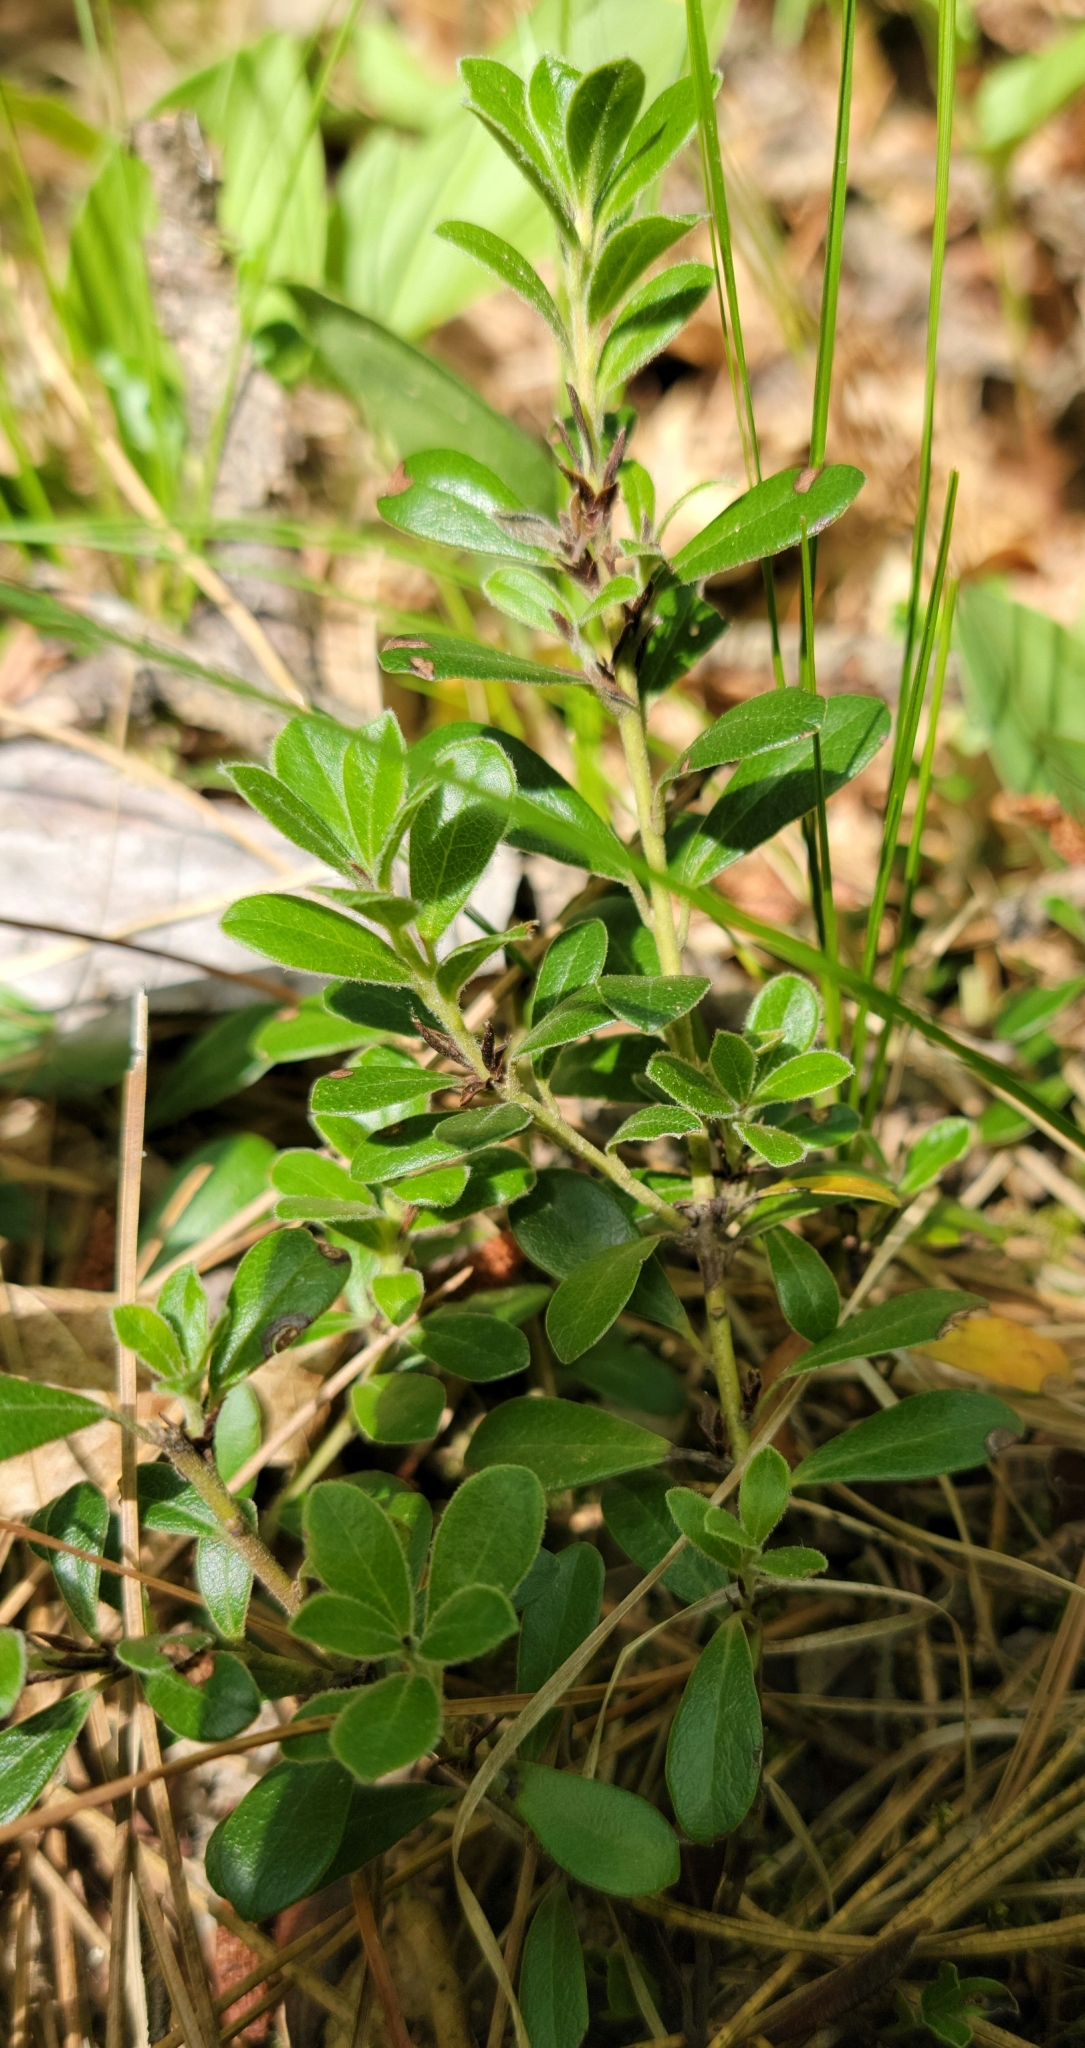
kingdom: Plantae
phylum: Tracheophyta
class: Magnoliopsida
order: Ericales
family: Ericaceae
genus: Arctostaphylos
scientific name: Arctostaphylos uva-ursi
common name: Bearberry
